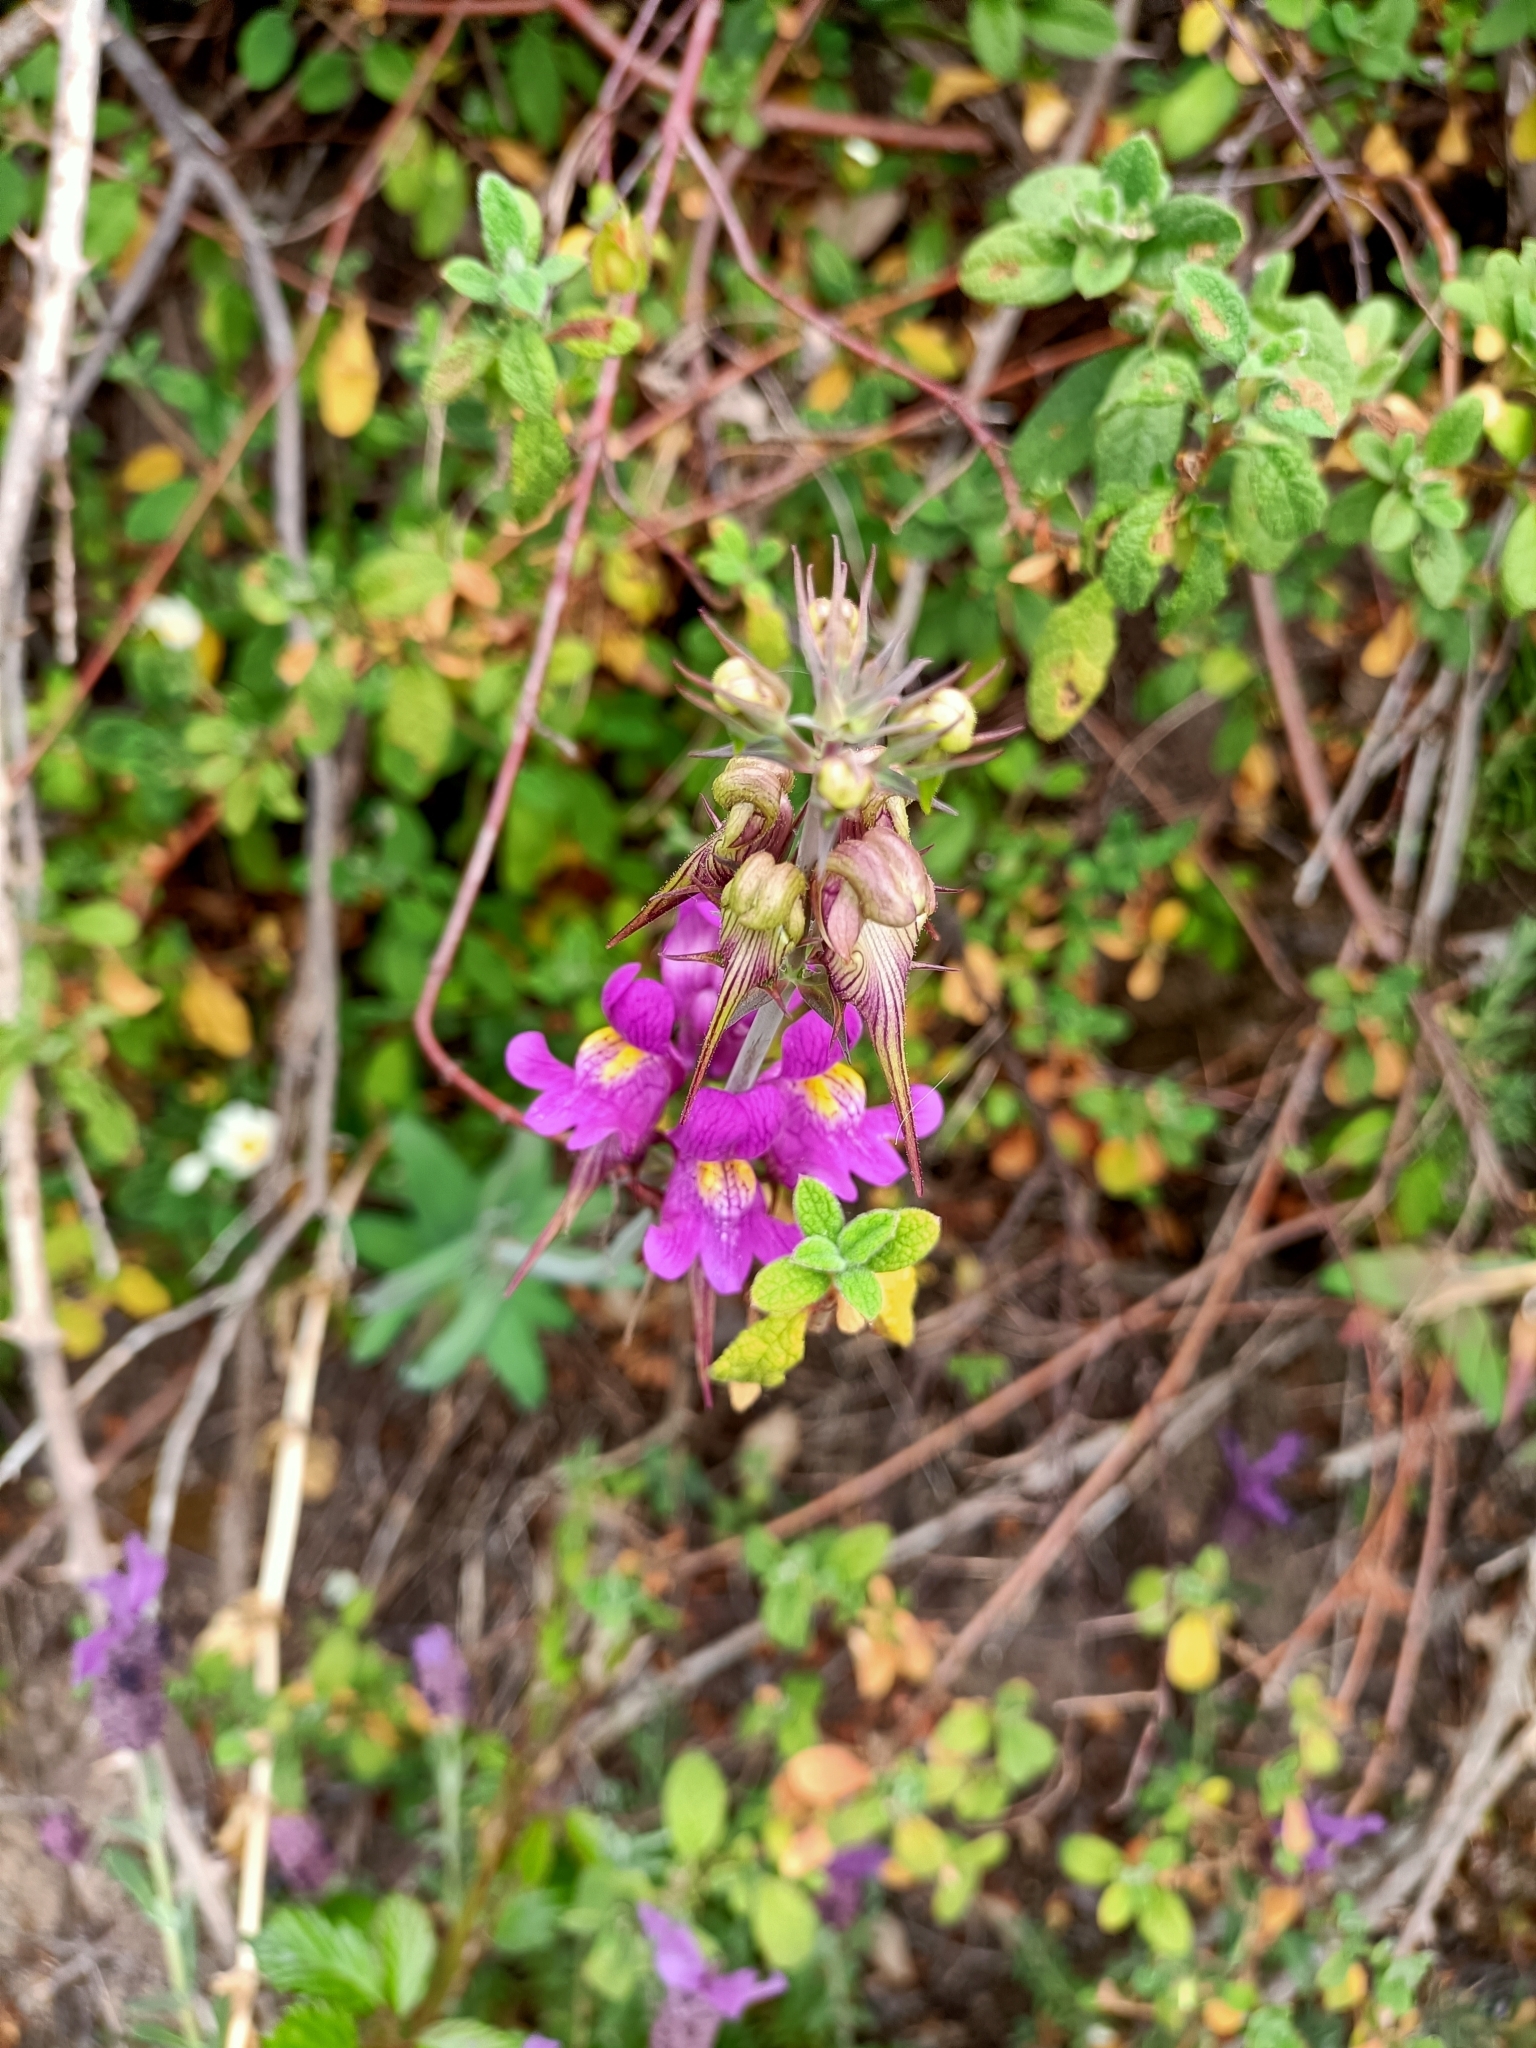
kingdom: Plantae
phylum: Tracheophyta
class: Magnoliopsida
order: Lamiales
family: Plantaginaceae
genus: Linaria
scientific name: Linaria triornithophora
